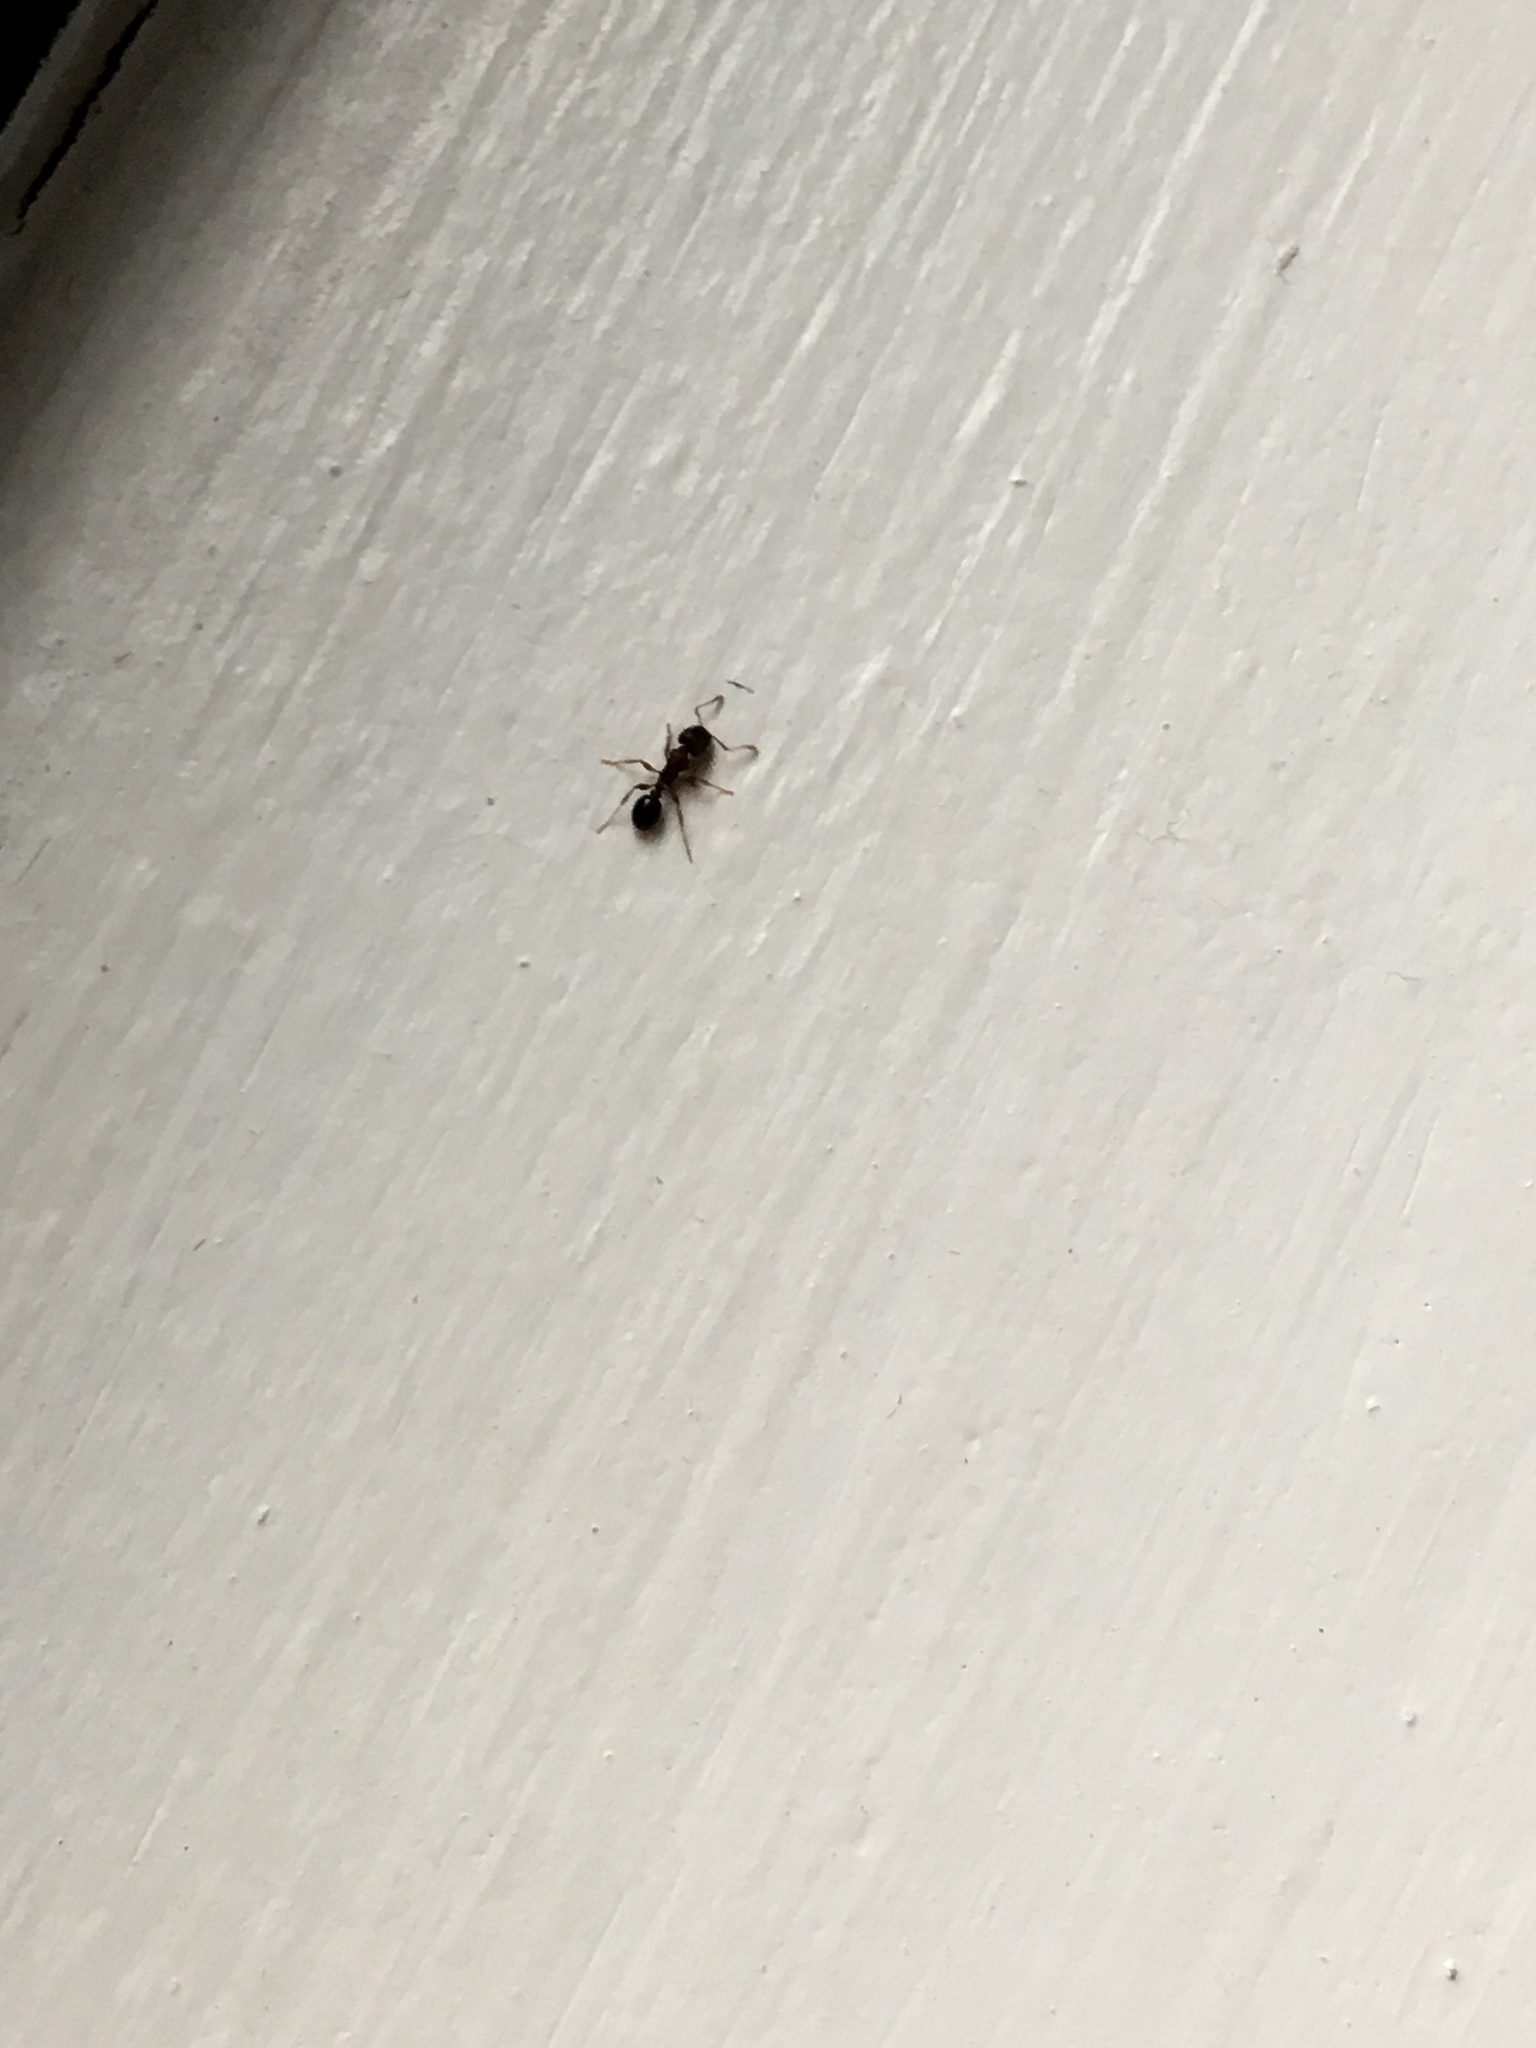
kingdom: Animalia
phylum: Arthropoda
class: Insecta
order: Hymenoptera
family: Formicidae
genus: Tetramorium
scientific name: Tetramorium immigrans
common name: Pavement ant
